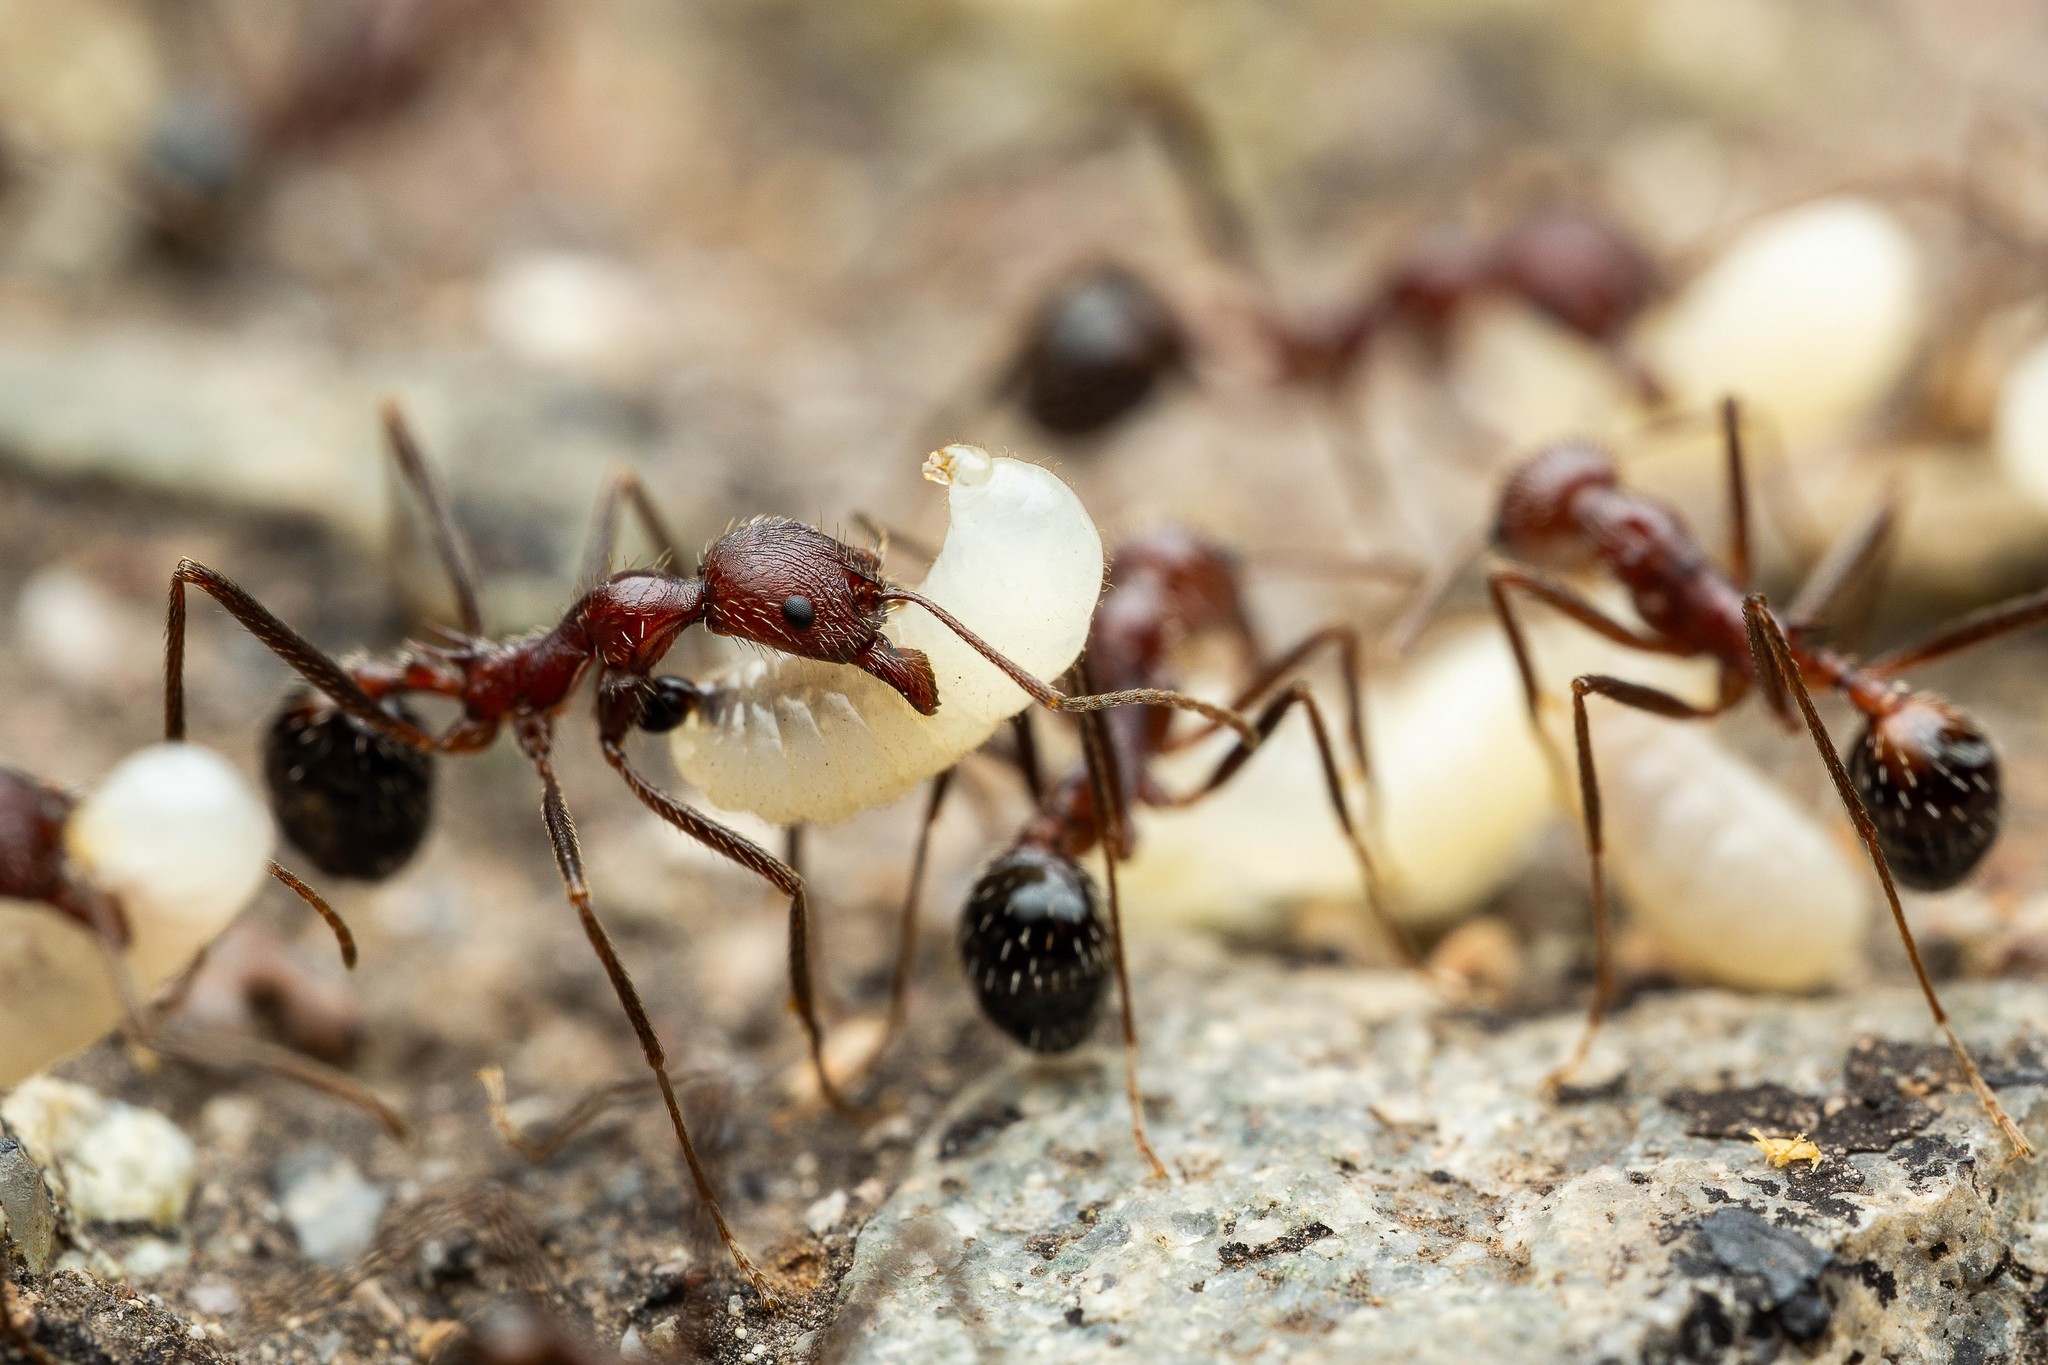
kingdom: Animalia
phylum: Arthropoda
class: Insecta
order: Hymenoptera
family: Formicidae
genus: Novomessor
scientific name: Novomessor albisetosa
